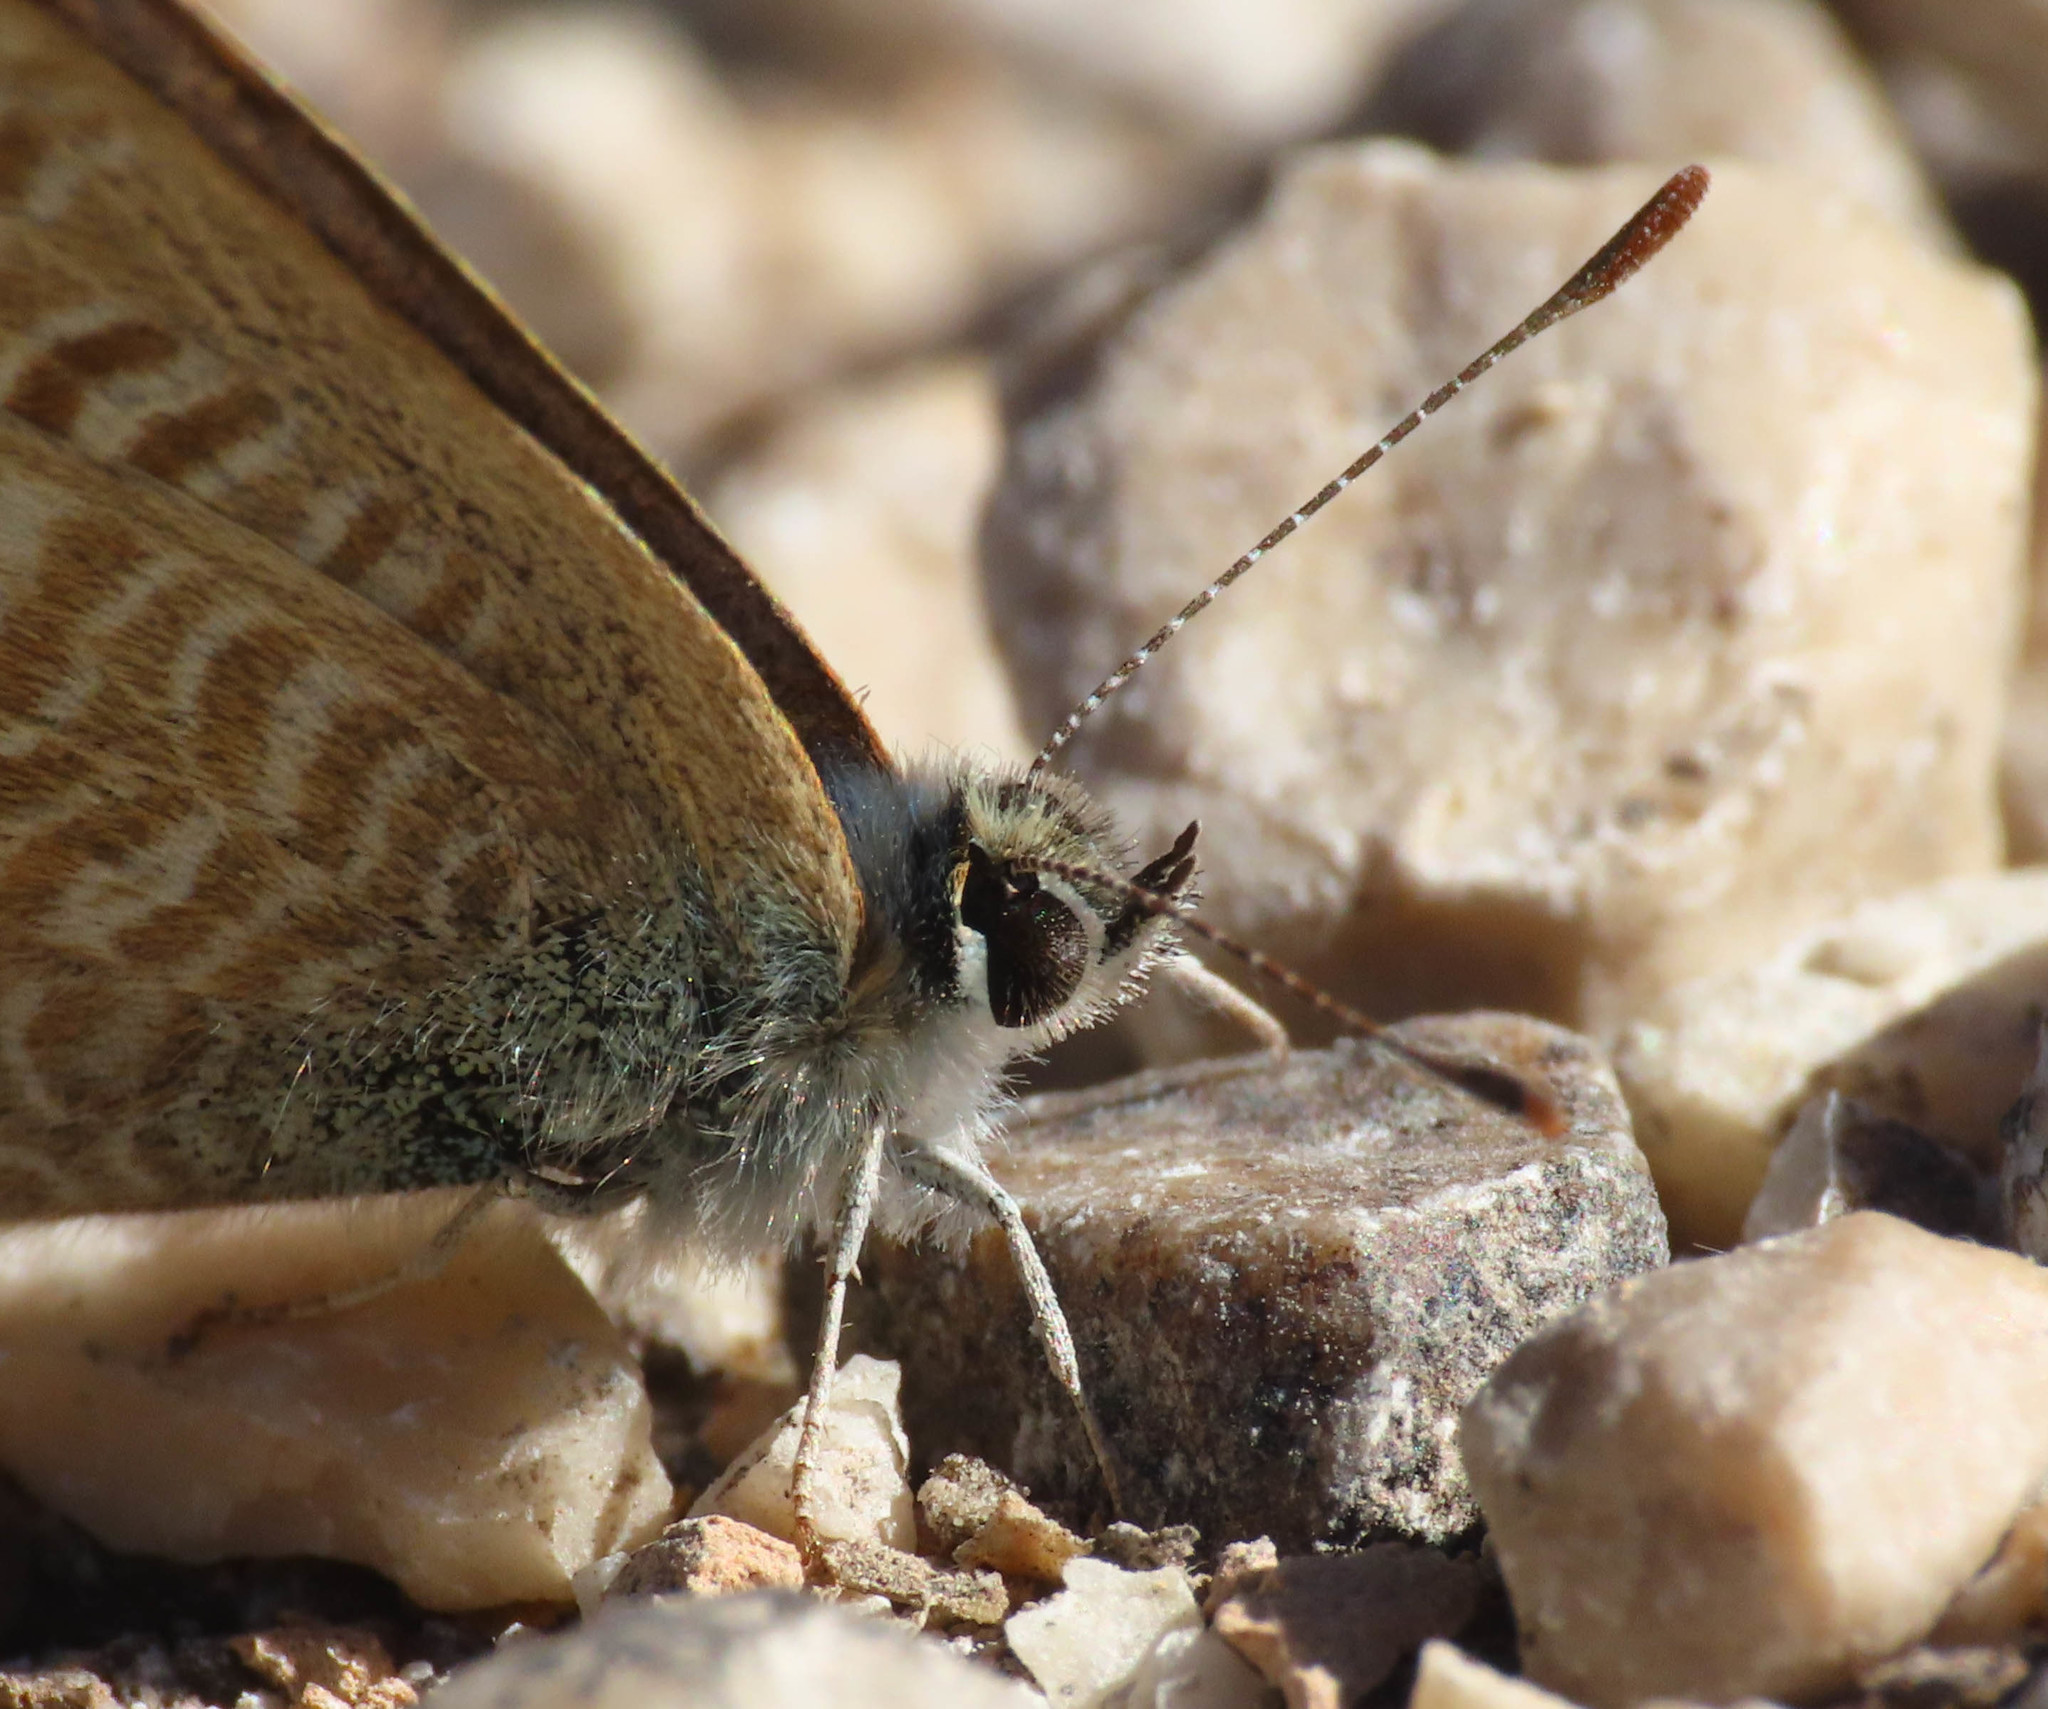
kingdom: Animalia
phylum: Arthropoda
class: Insecta
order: Lepidoptera
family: Lycaenidae
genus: Lampides
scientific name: Lampides boeticus
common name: Long-tailed blue
